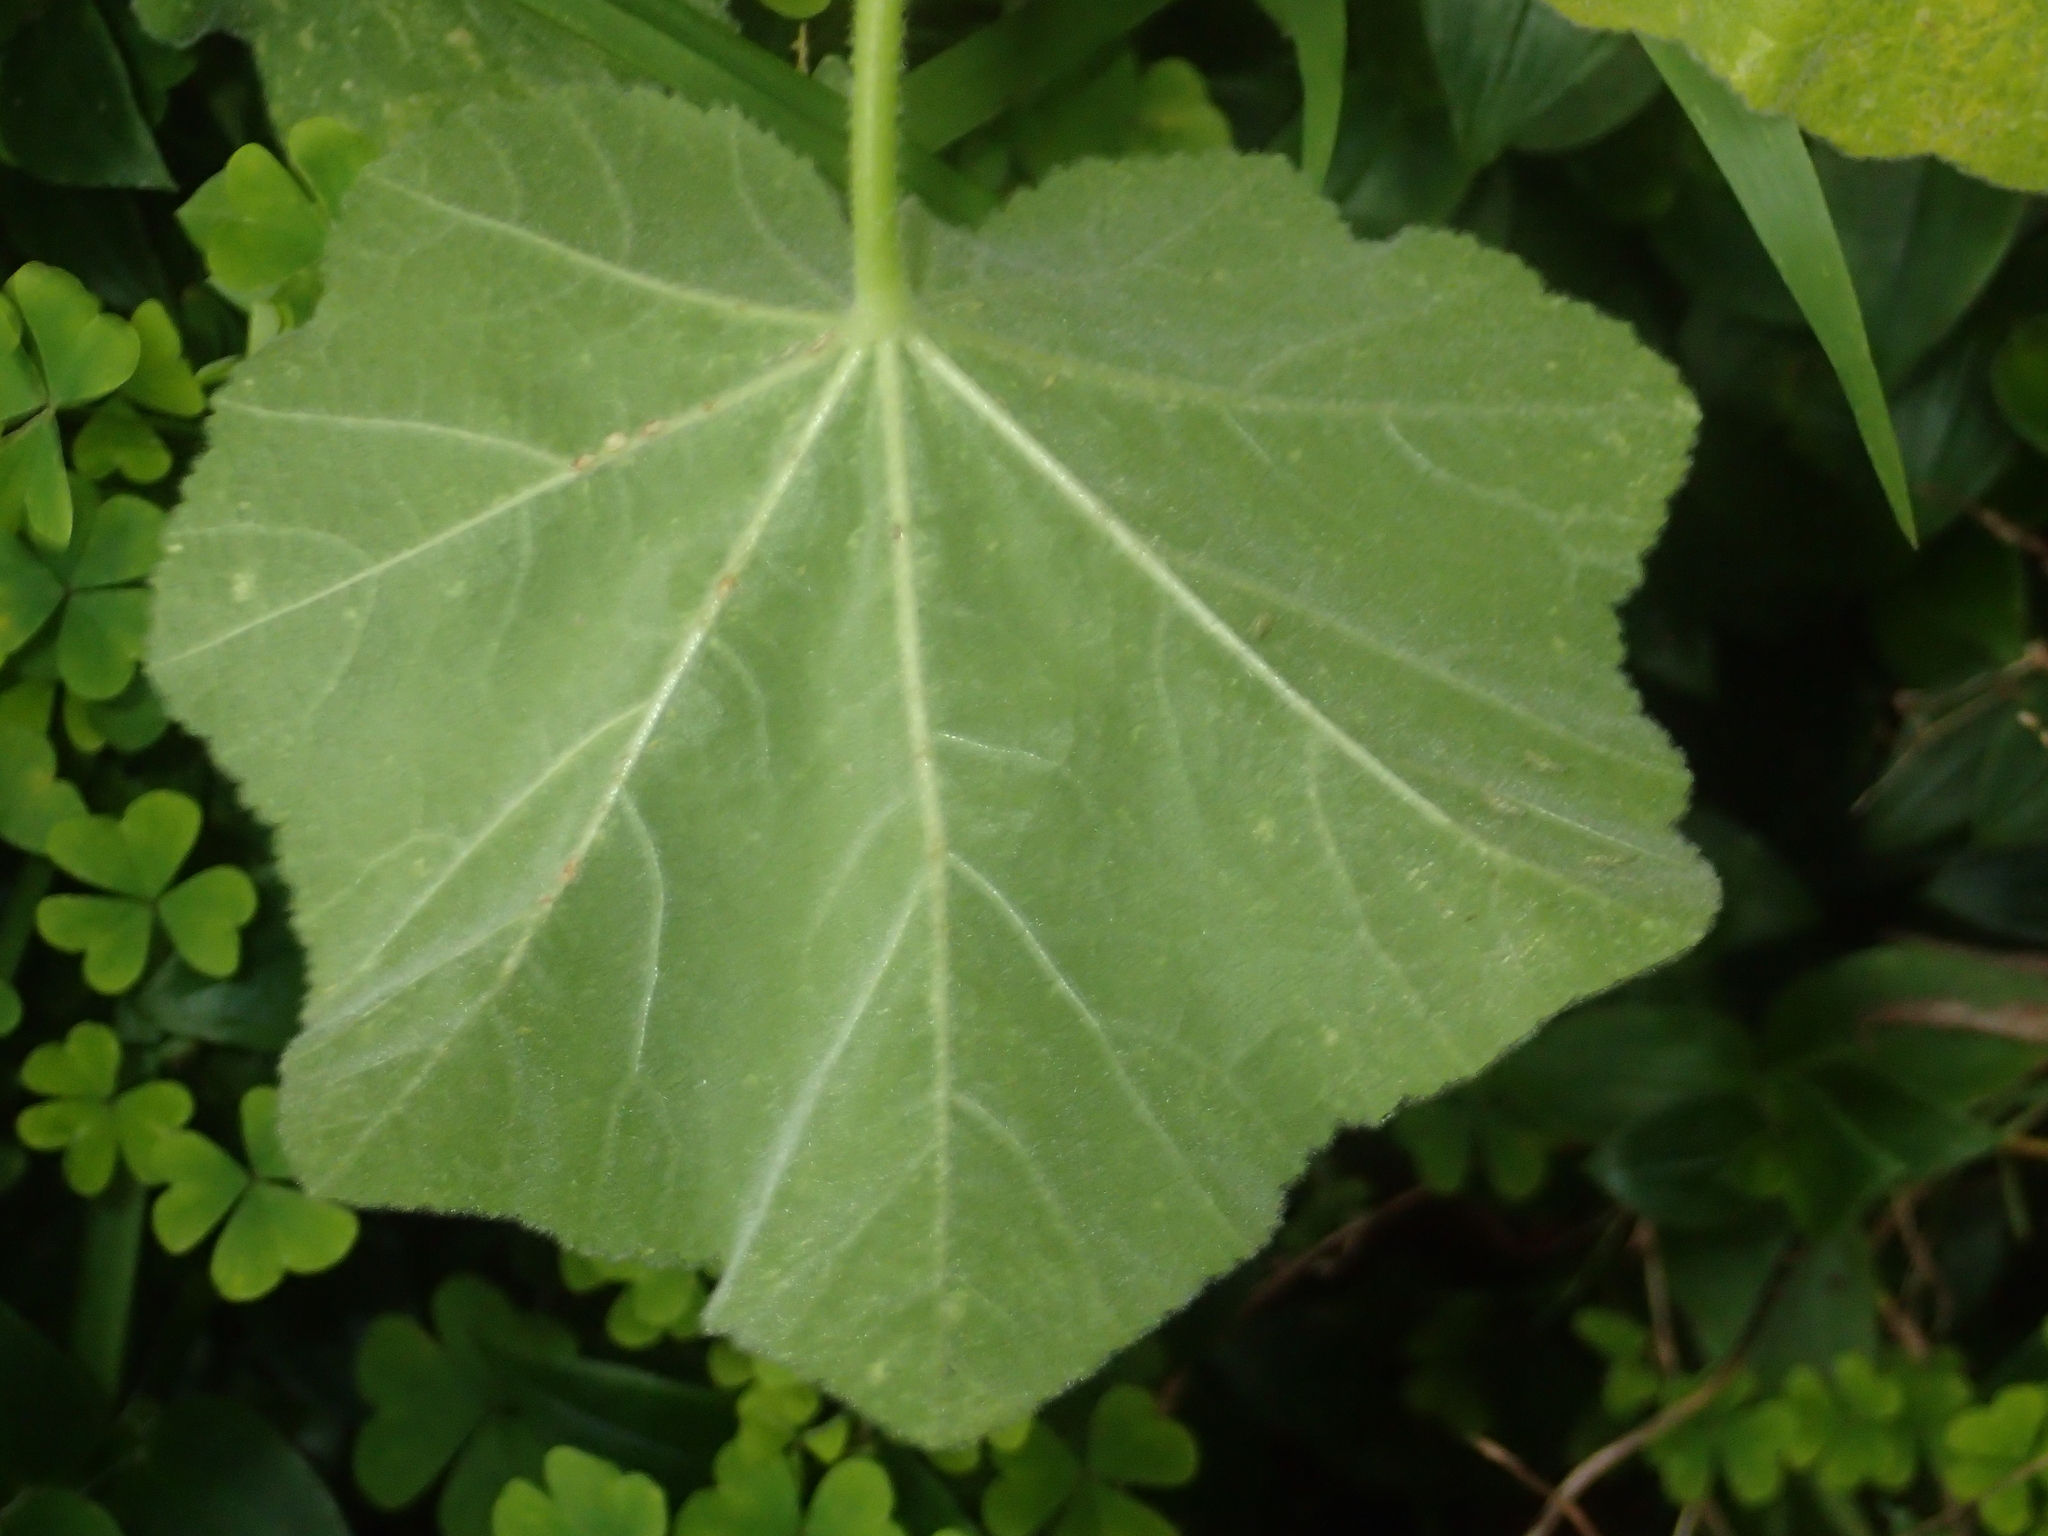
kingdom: Plantae
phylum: Tracheophyta
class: Magnoliopsida
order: Malvales
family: Malvaceae
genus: Malva
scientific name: Malva arborea
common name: Tree mallow
